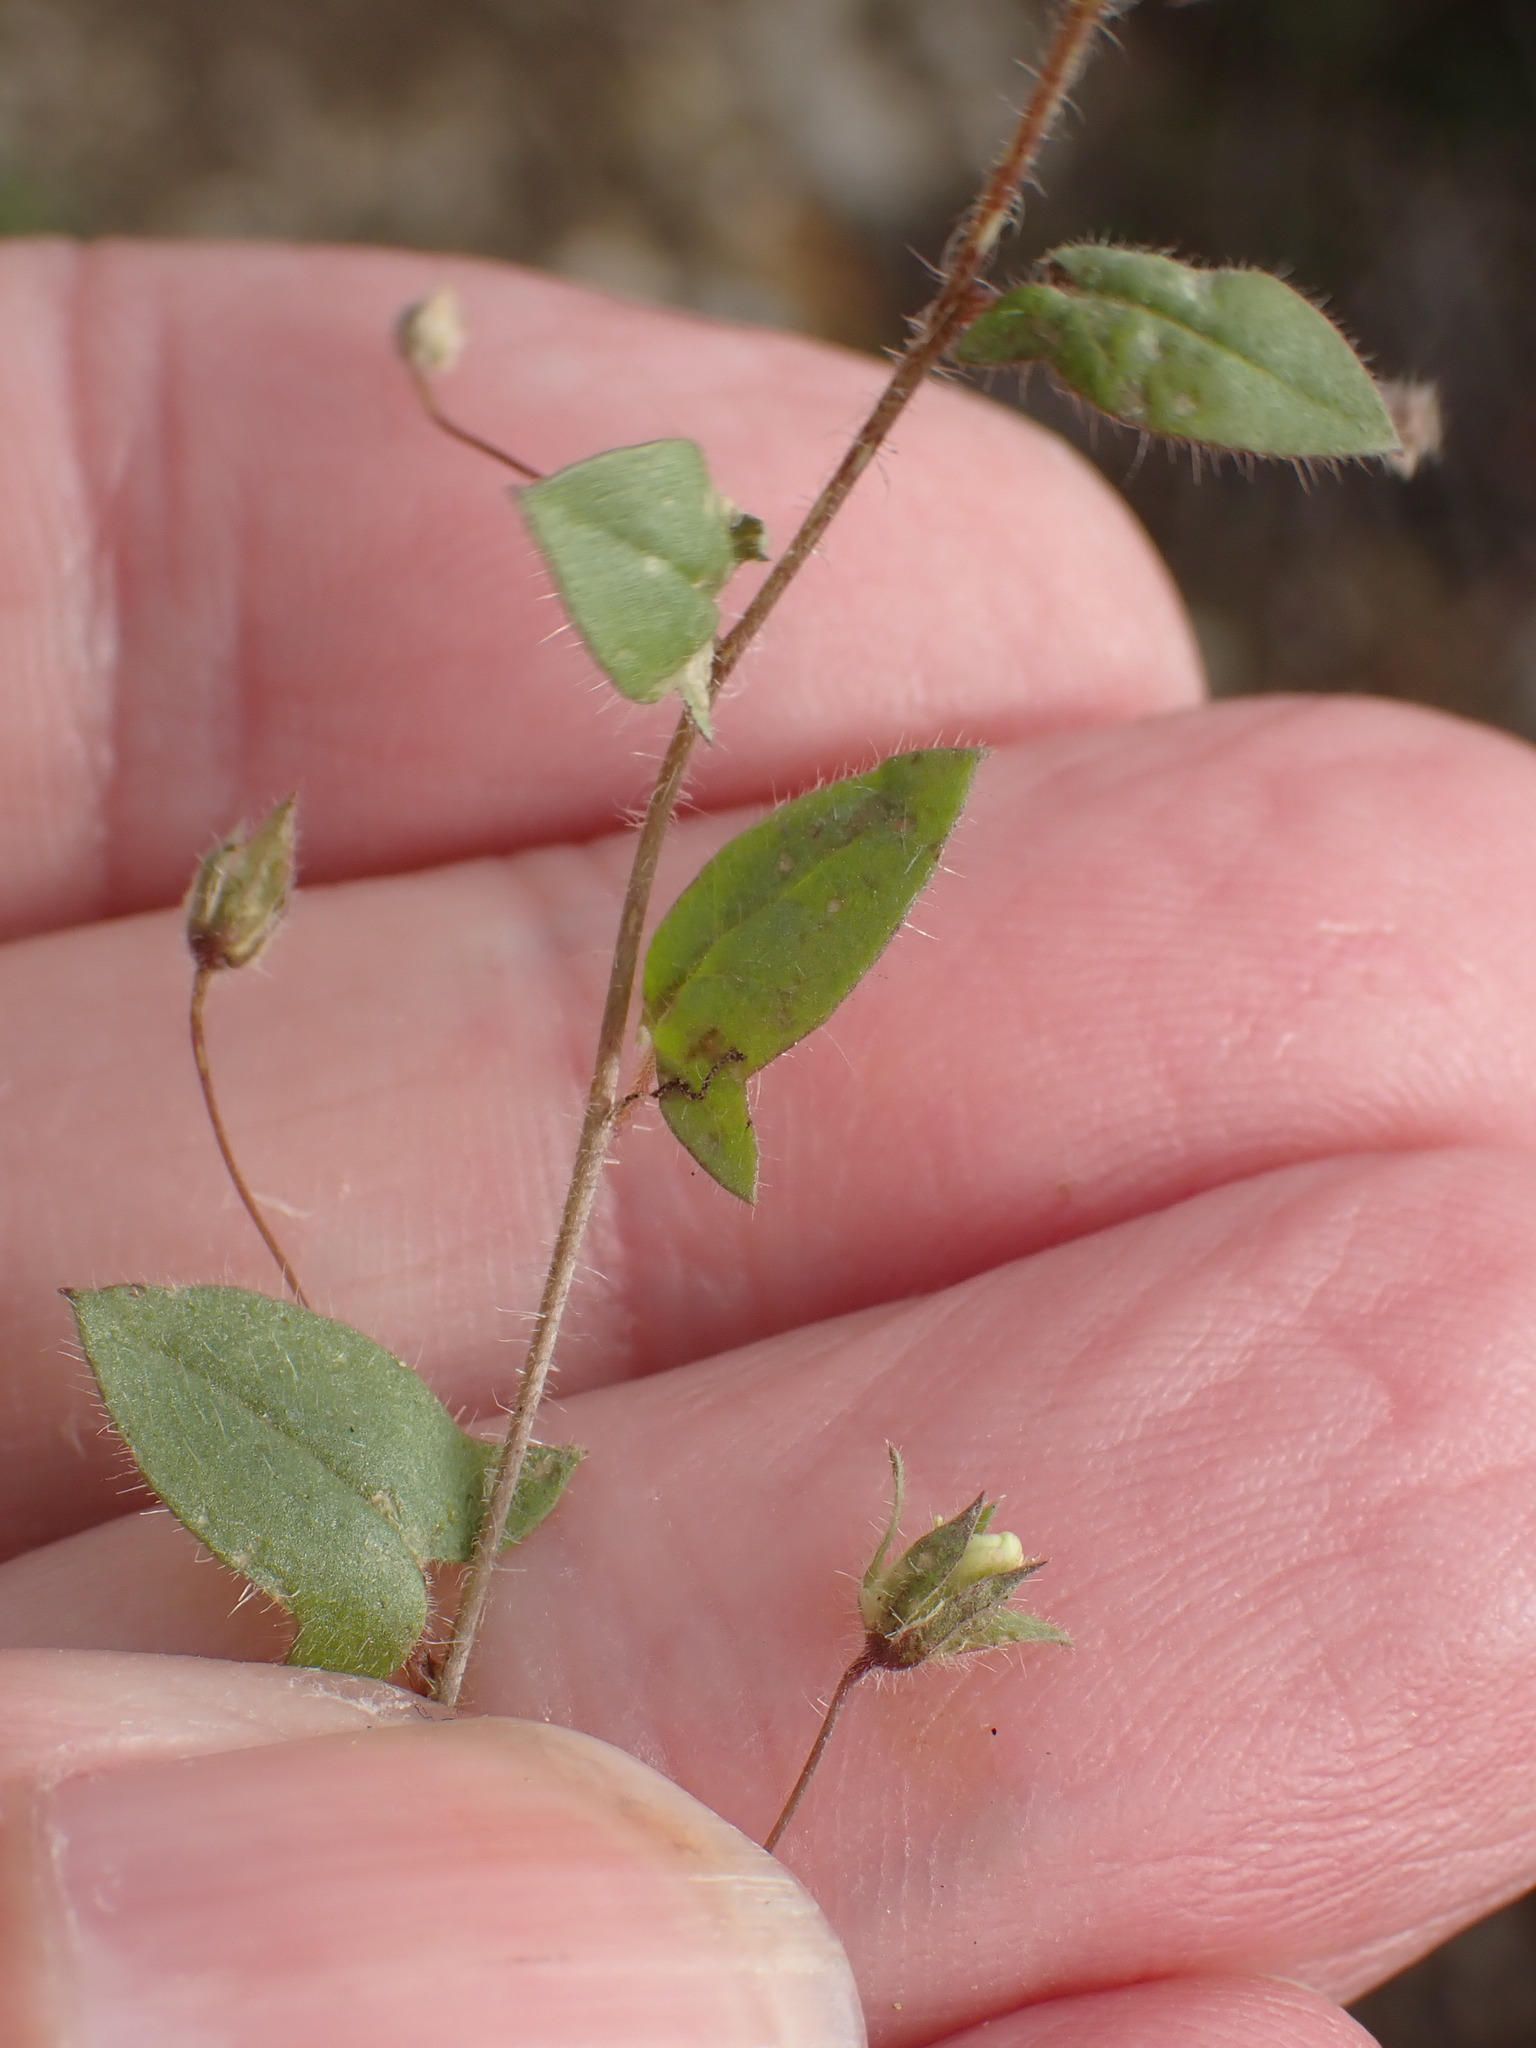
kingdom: Plantae
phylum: Tracheophyta
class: Magnoliopsida
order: Lamiales
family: Plantaginaceae
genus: Kickxia
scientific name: Kickxia elatine
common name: Sharp-leaved fluellen
